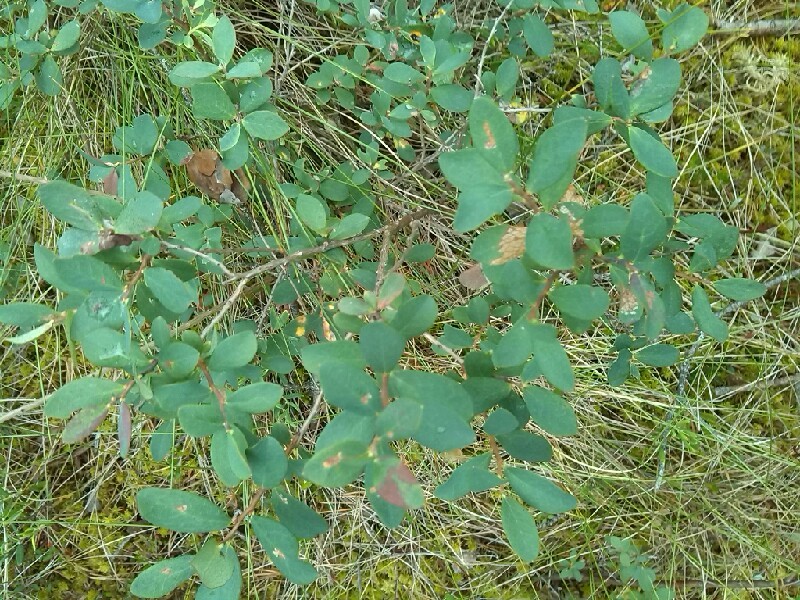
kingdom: Plantae
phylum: Tracheophyta
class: Magnoliopsida
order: Ericales
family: Ericaceae
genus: Vaccinium
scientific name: Vaccinium uliginosum
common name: Bog bilberry
